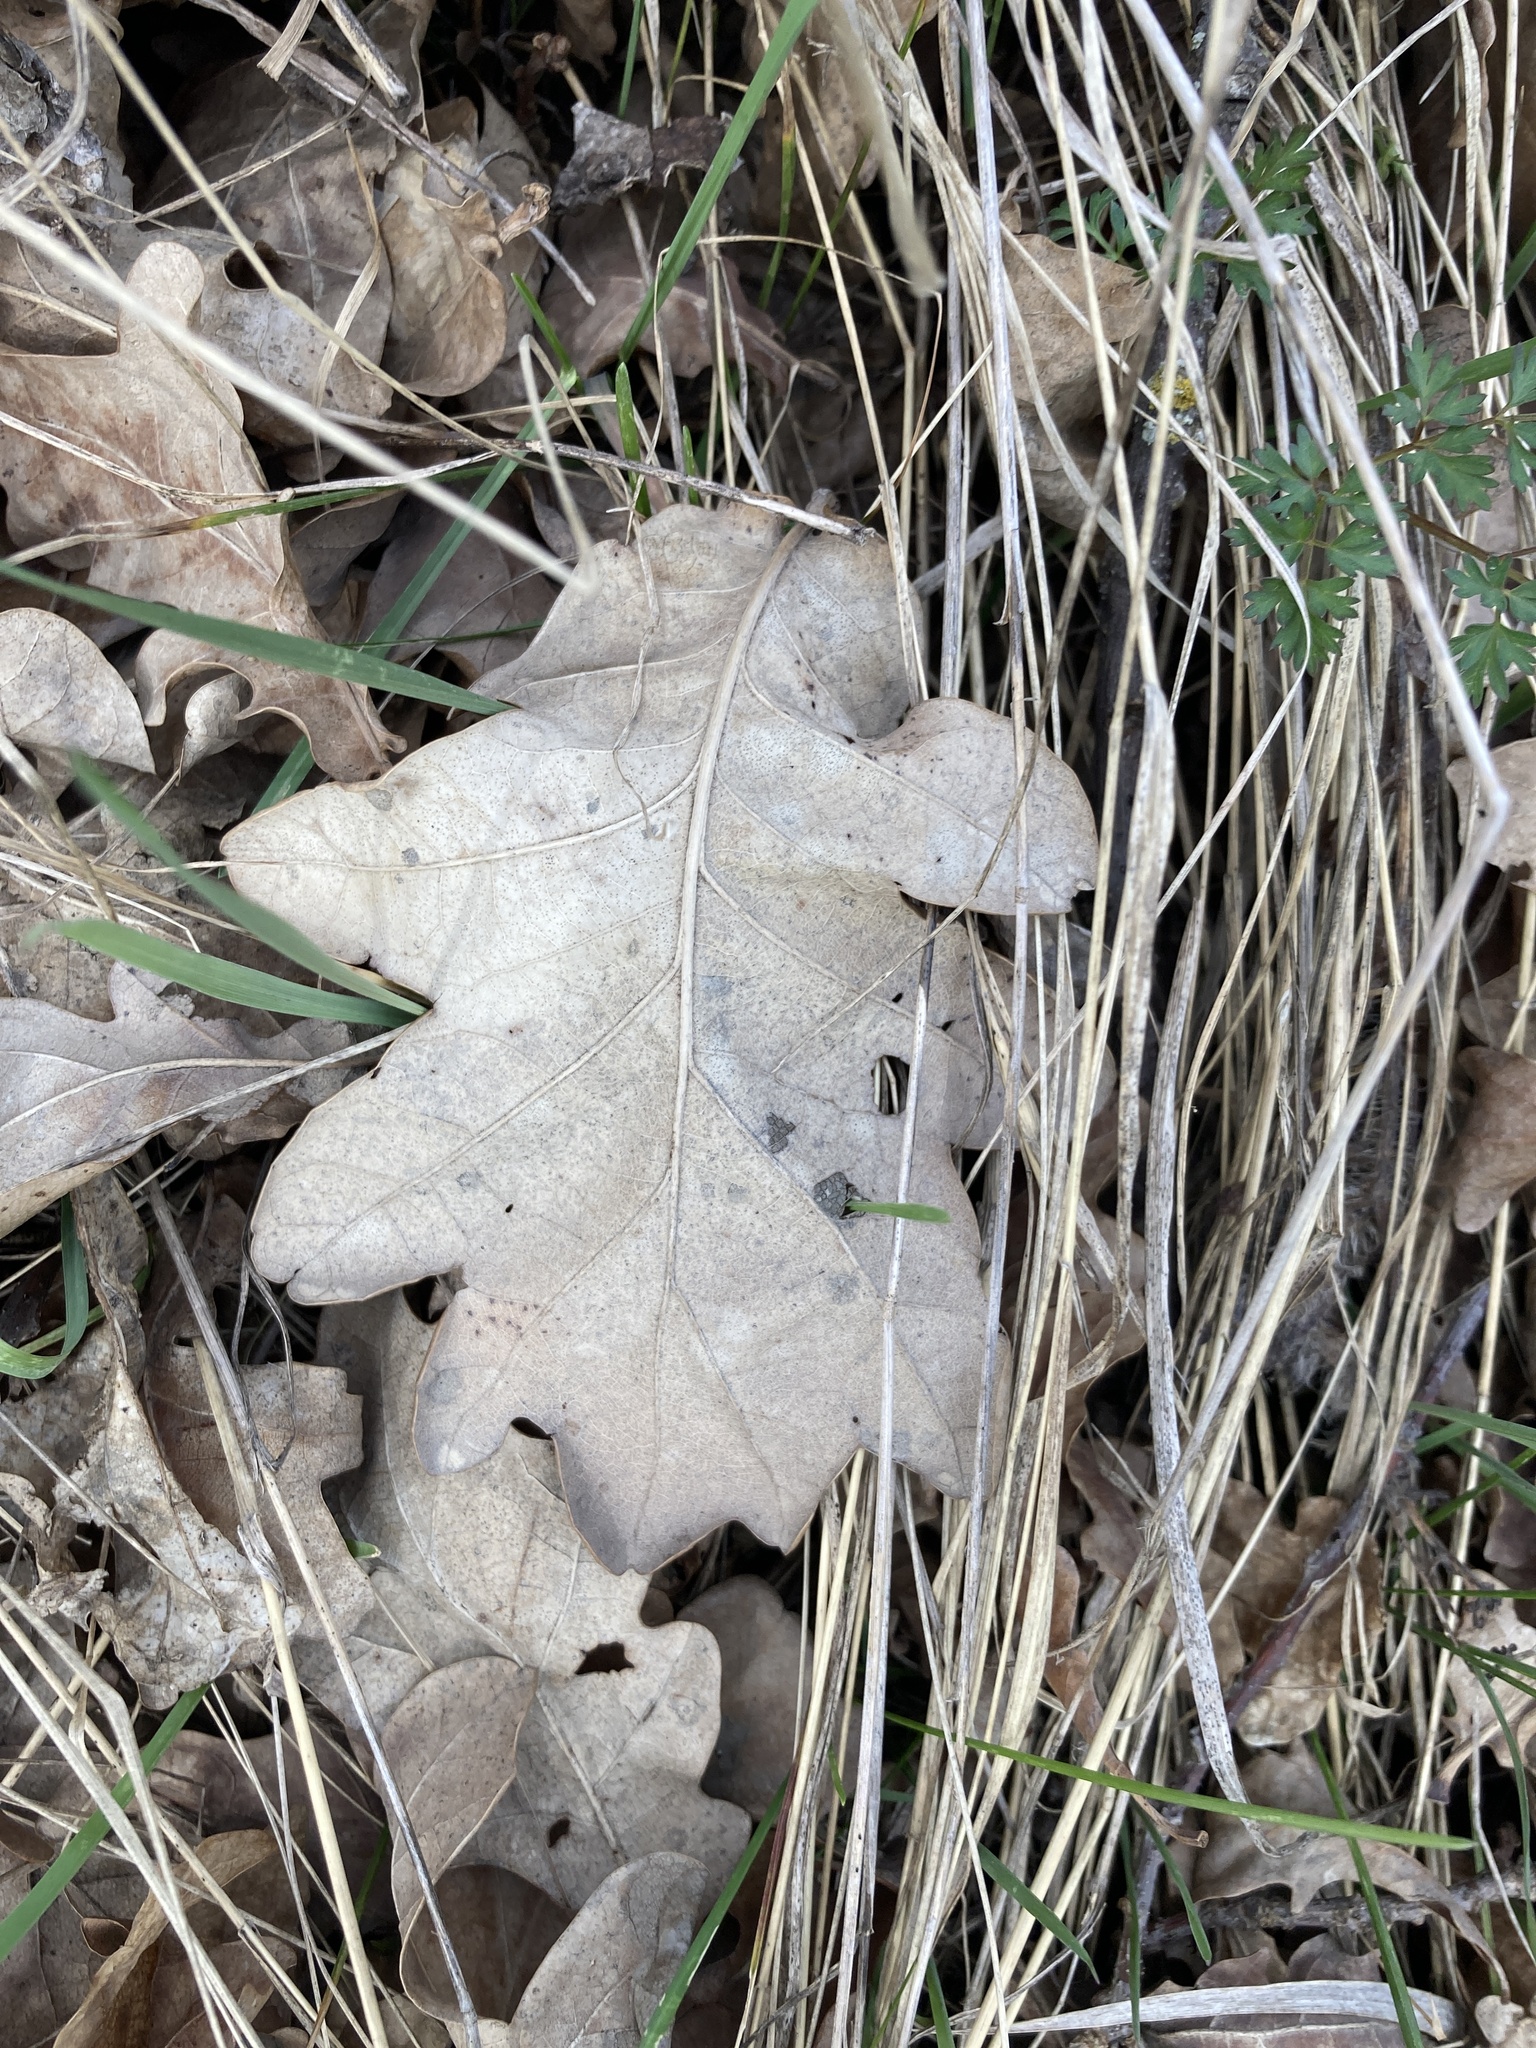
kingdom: Plantae
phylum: Tracheophyta
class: Magnoliopsida
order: Fagales
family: Fagaceae
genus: Quercus
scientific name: Quercus robur
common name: Pedunculate oak
